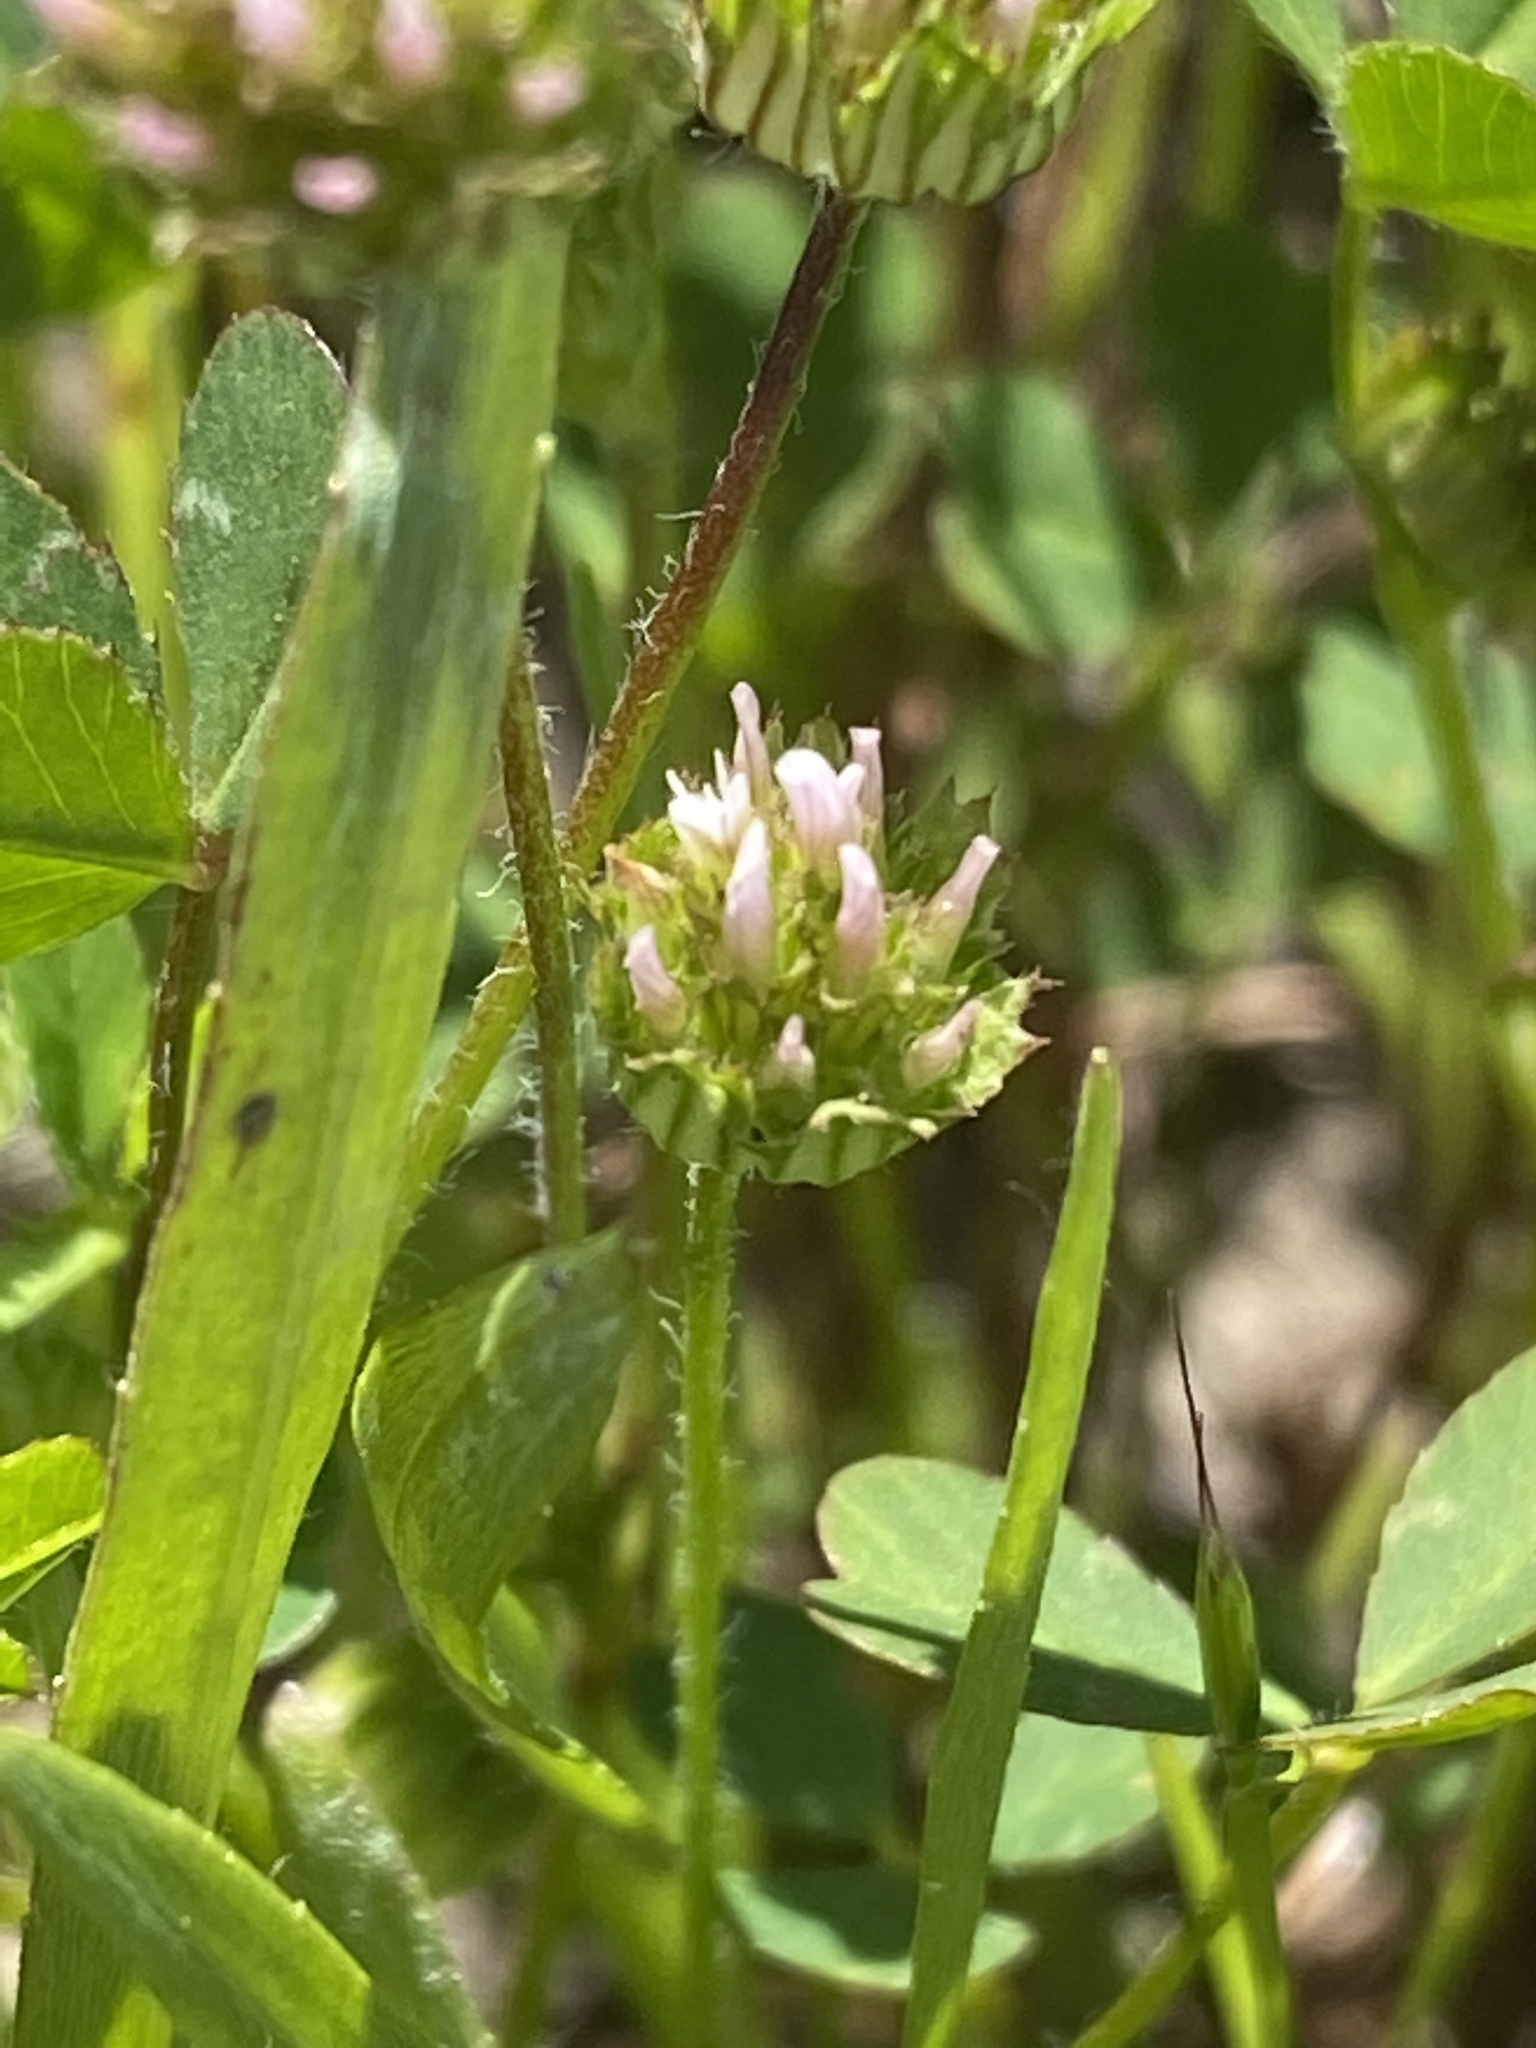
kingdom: Plantae
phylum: Tracheophyta
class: Magnoliopsida
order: Fabales
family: Fabaceae
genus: Trifolium
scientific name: Trifolium microdon
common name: Thimble clover
